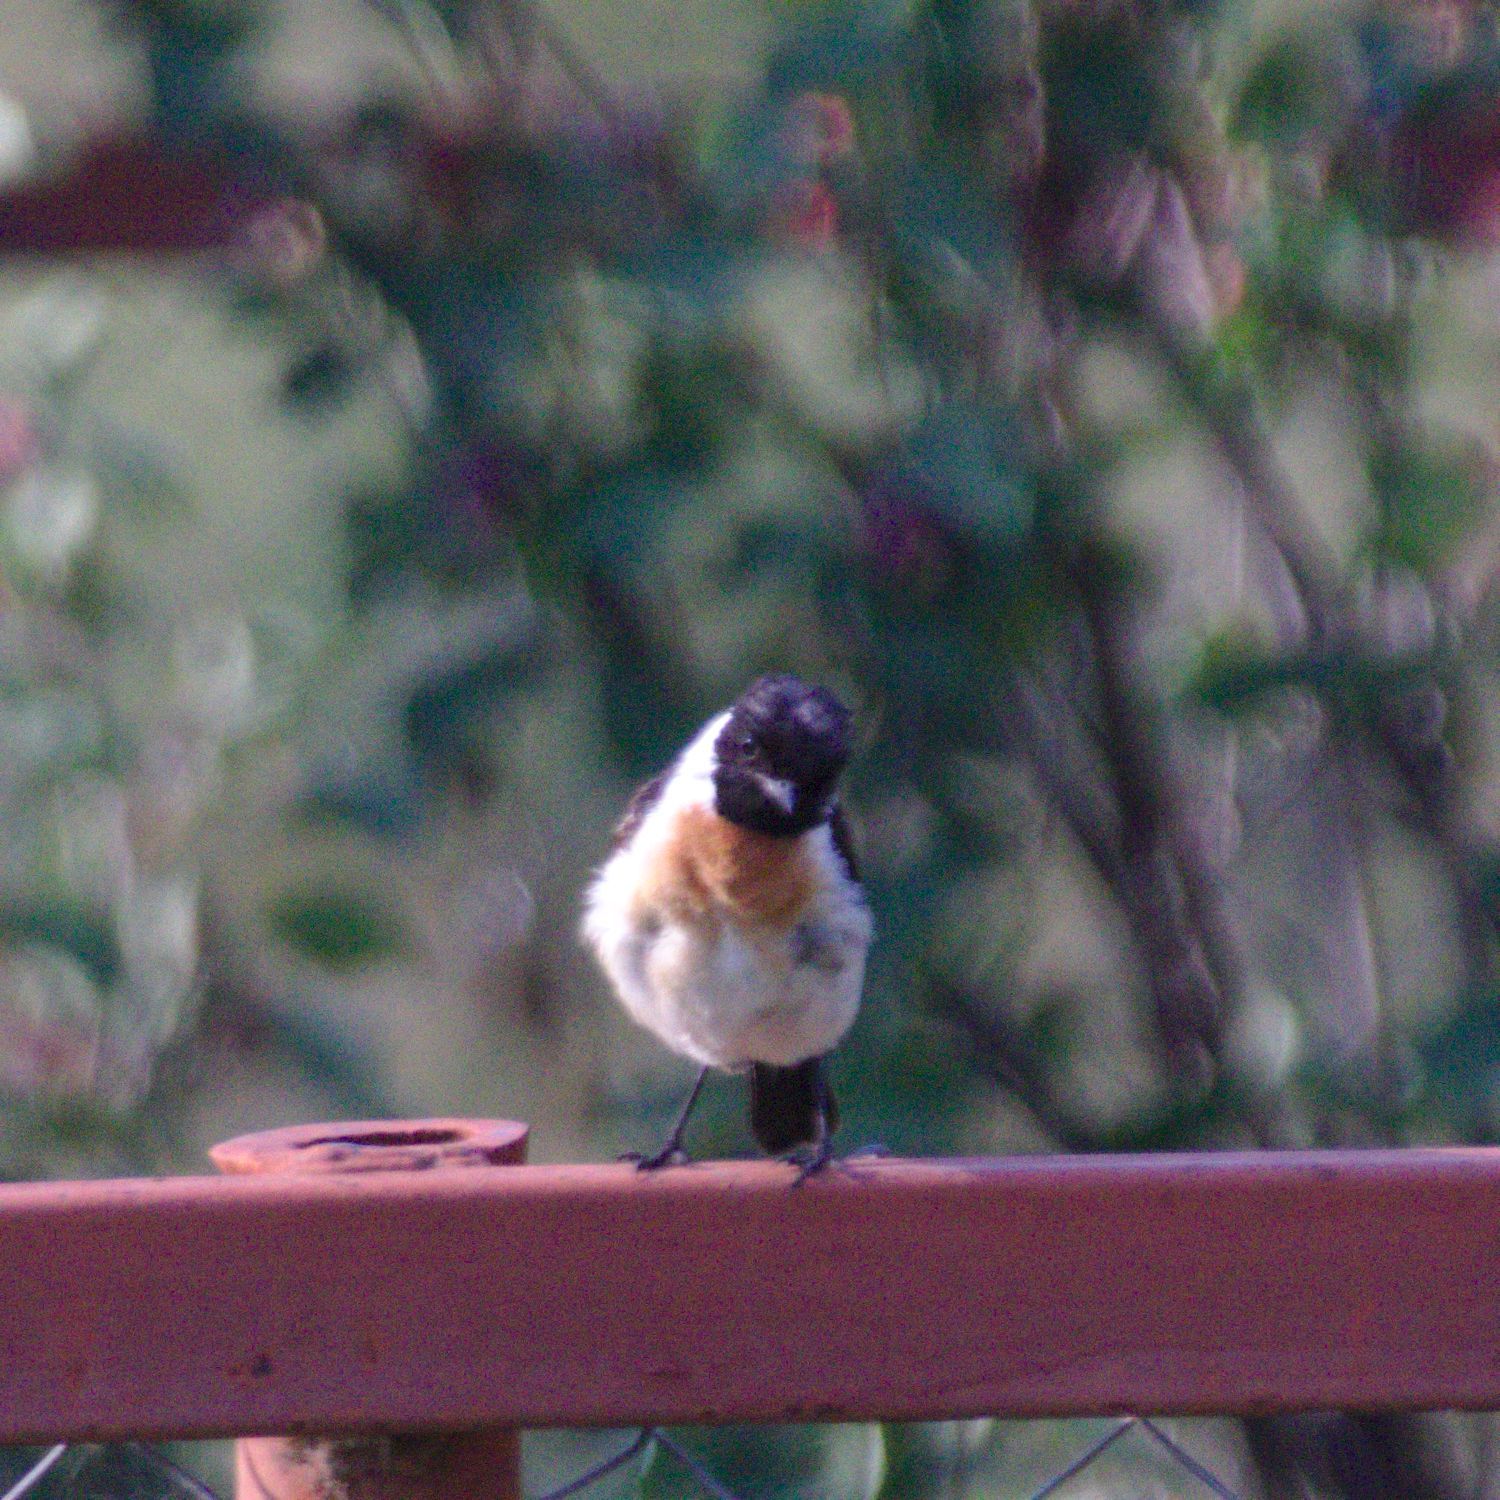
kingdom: Animalia
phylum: Chordata
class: Aves
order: Passeriformes
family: Muscicapidae
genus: Saxicola
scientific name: Saxicola maurus
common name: Siberian stonechat
